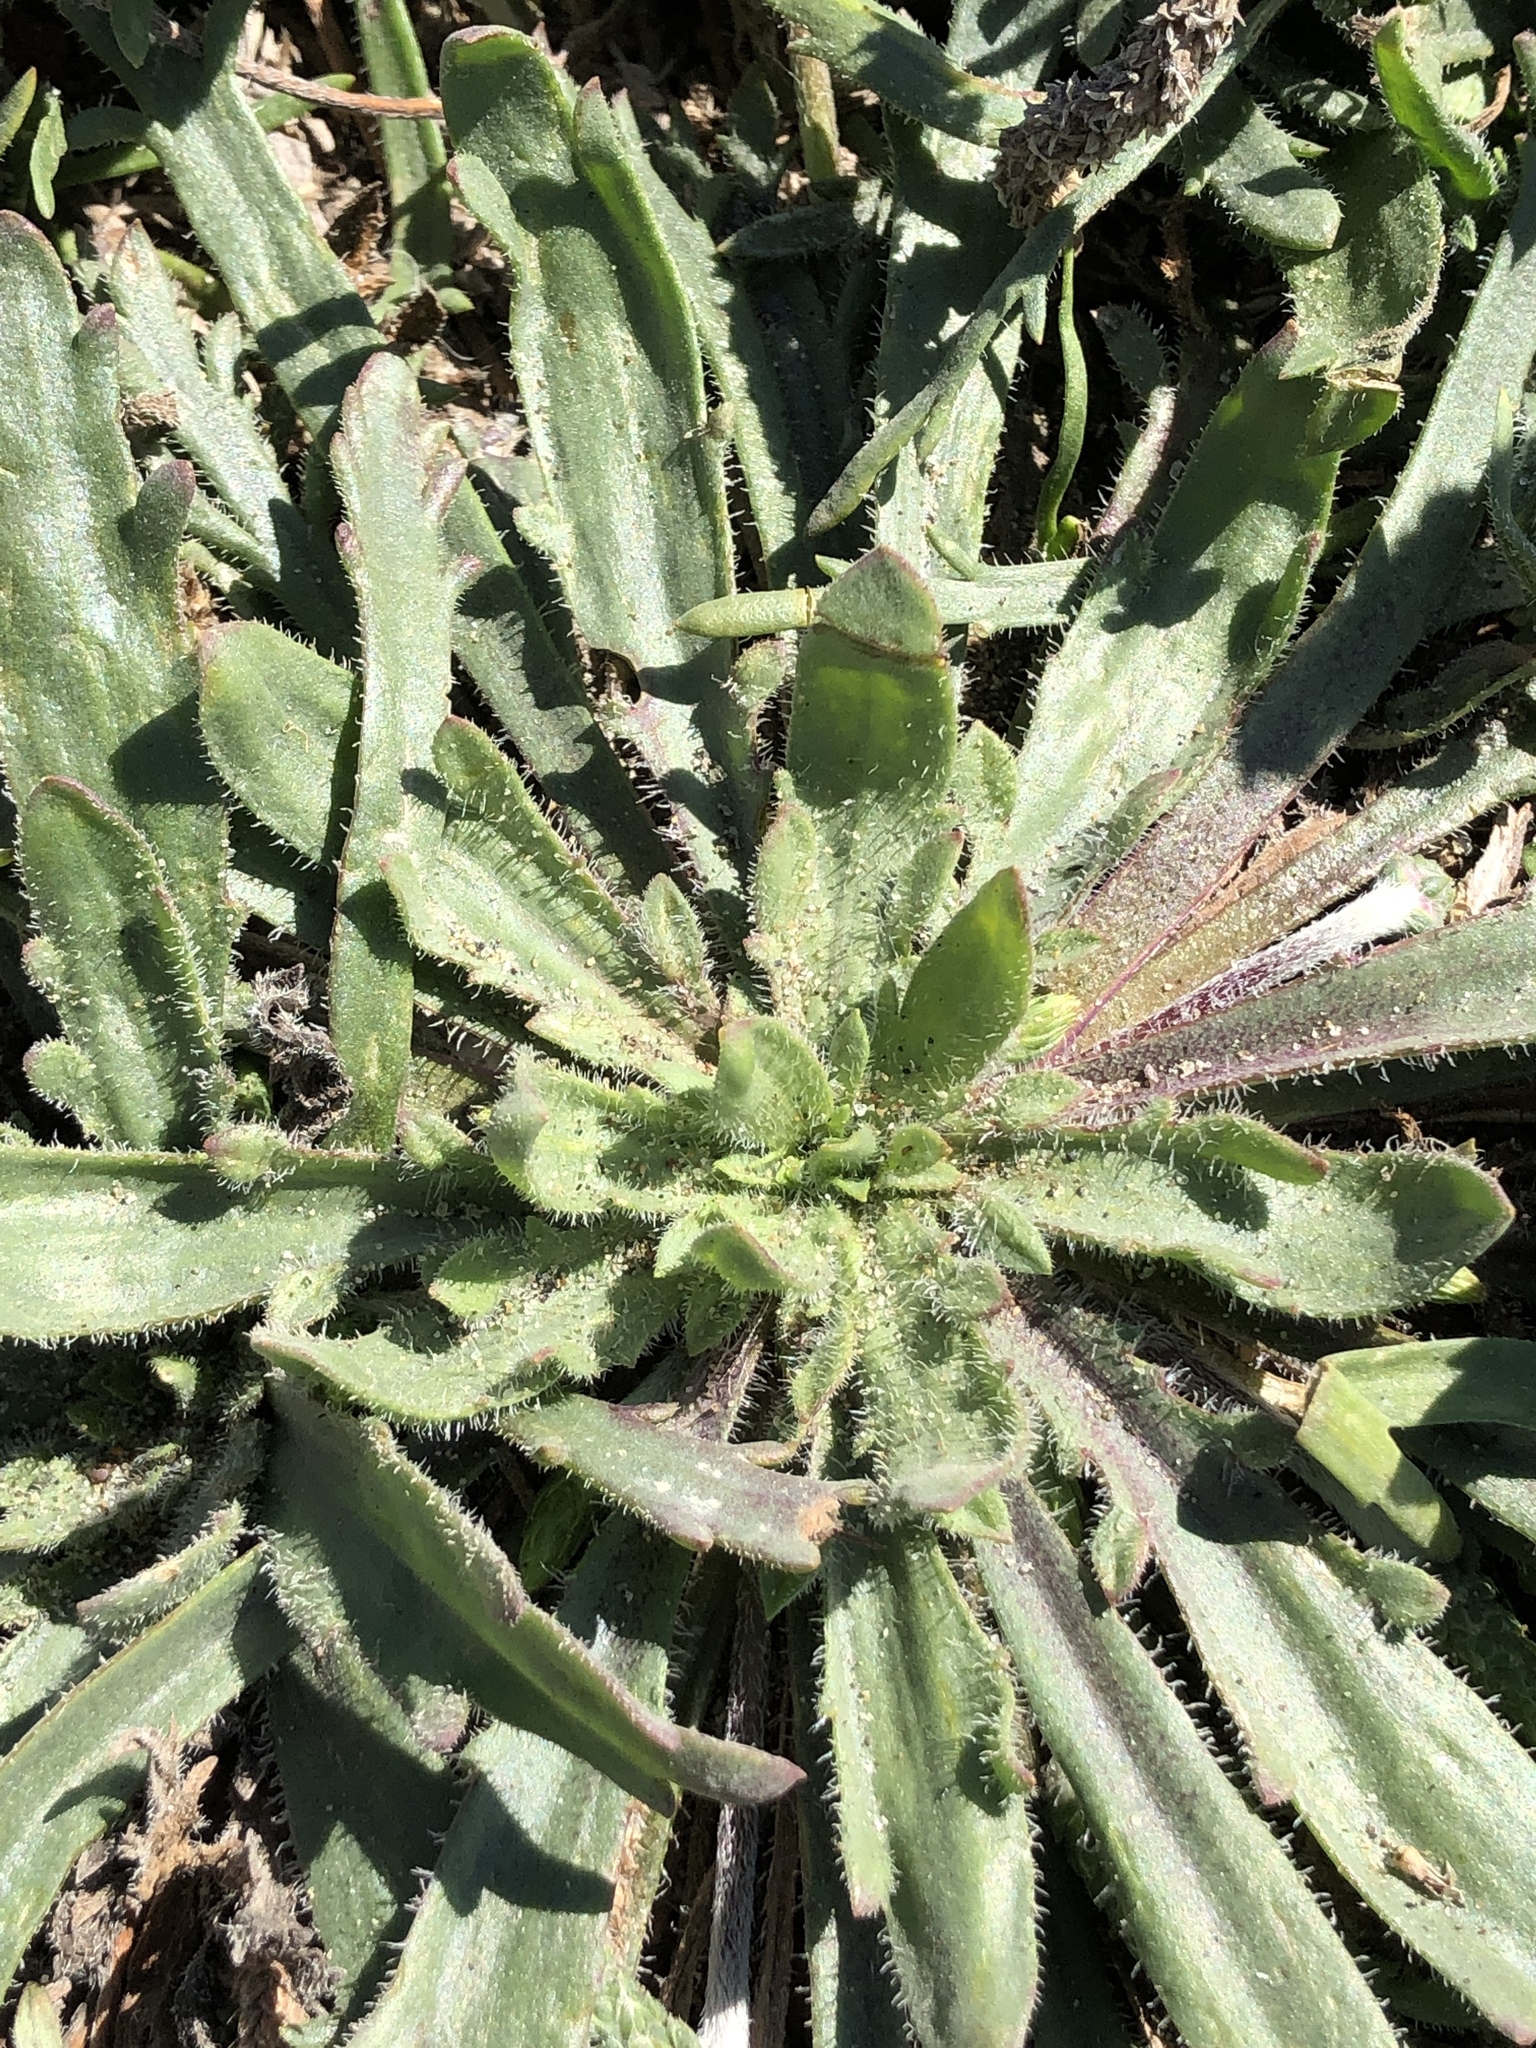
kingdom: Plantae
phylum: Tracheophyta
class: Magnoliopsida
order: Lamiales
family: Plantaginaceae
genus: Plantago
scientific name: Plantago coronopus
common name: Buck's-horn plantain
